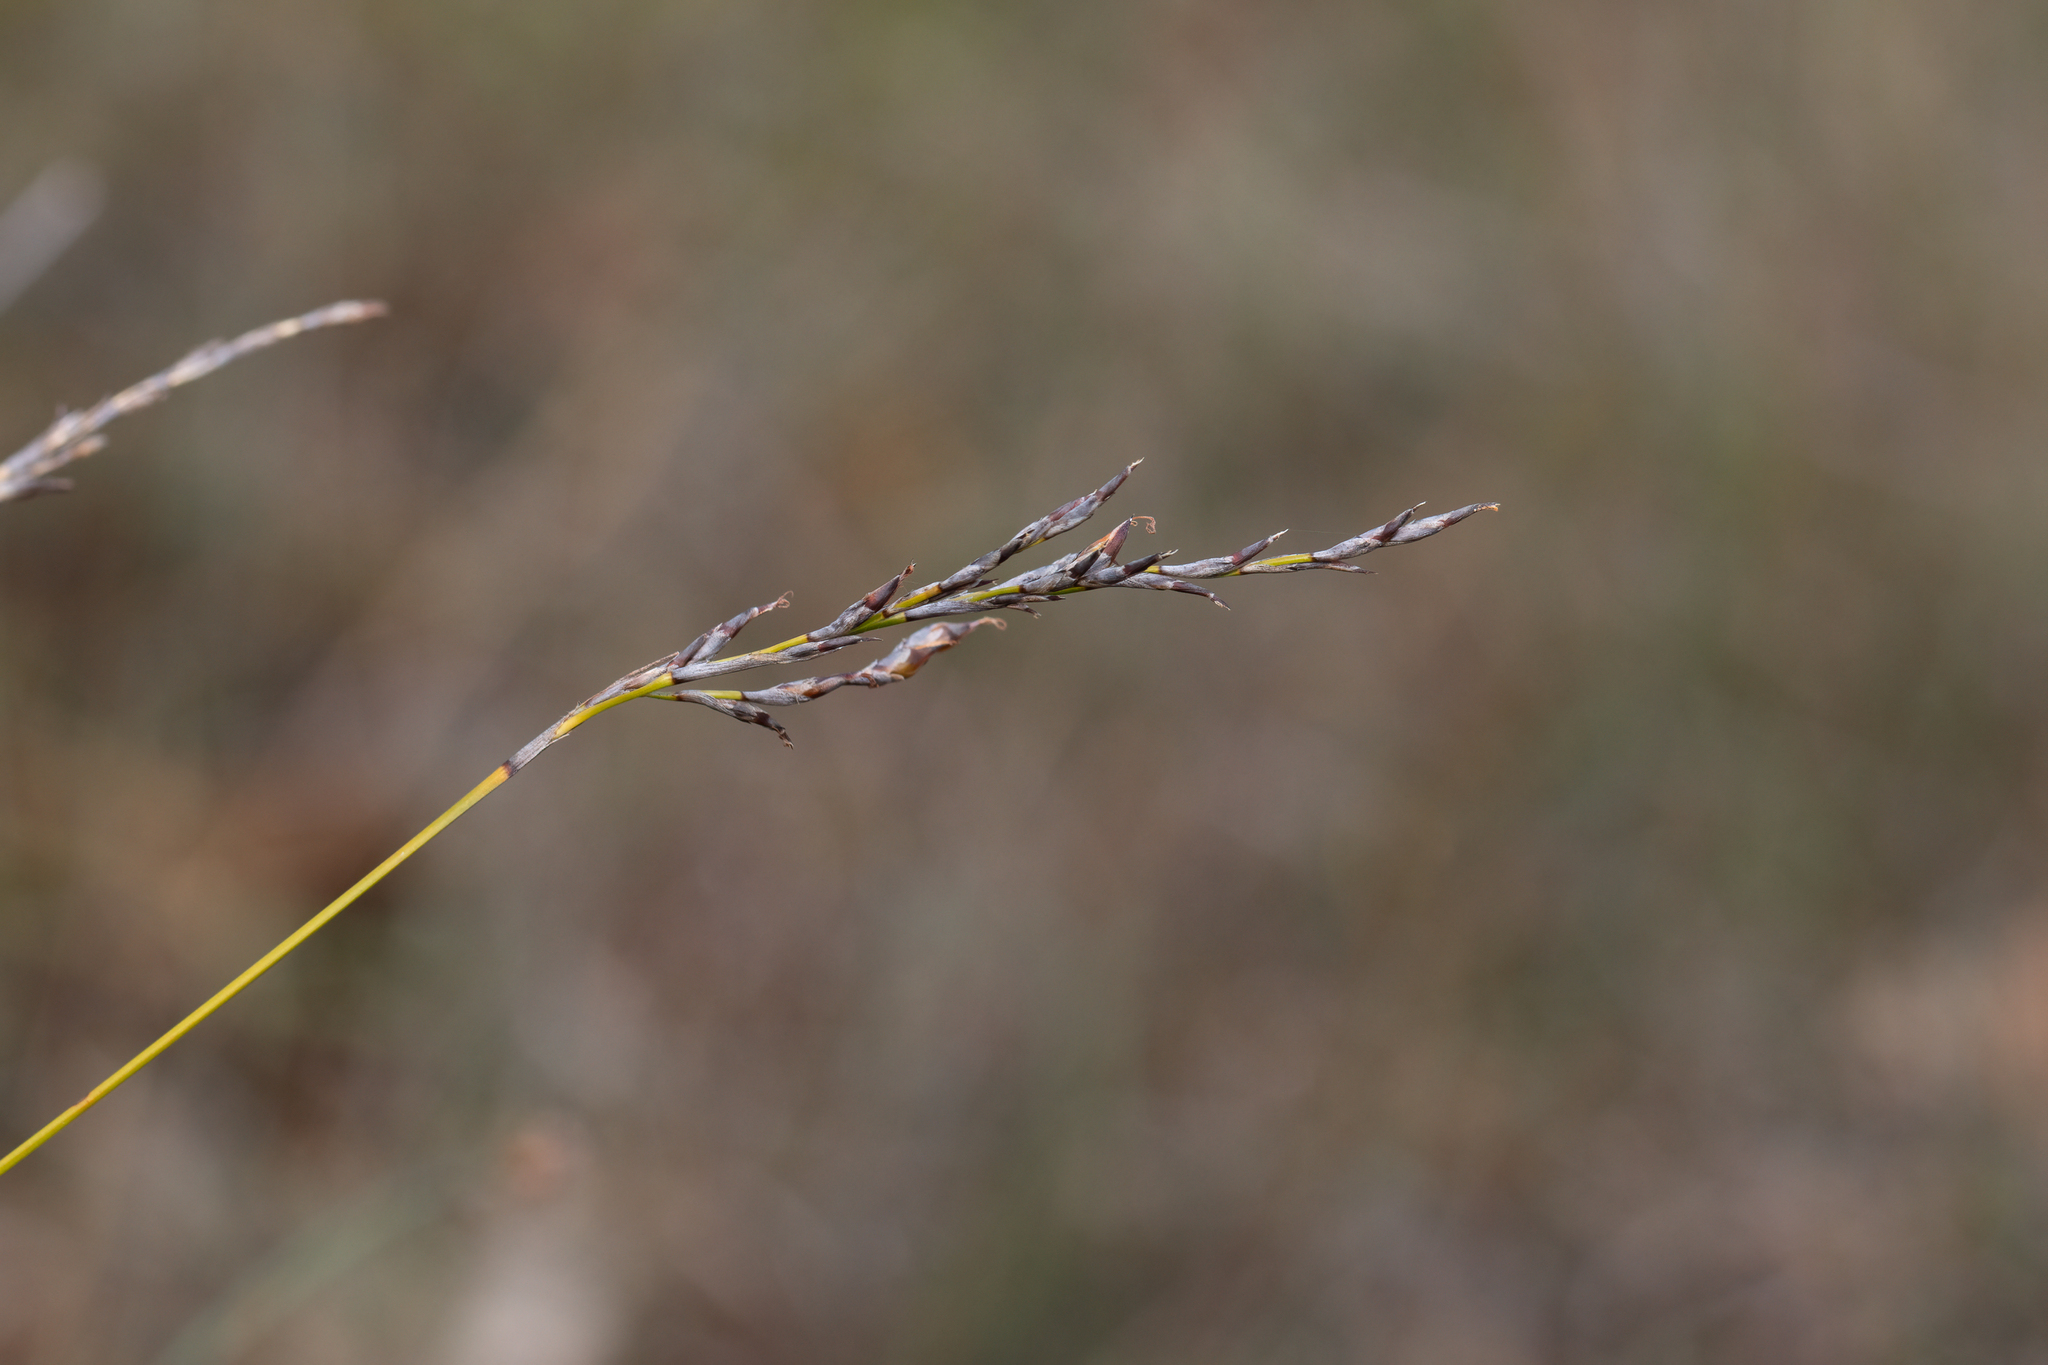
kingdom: Plantae
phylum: Tracheophyta
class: Liliopsida
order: Poales
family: Cyperaceae
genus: Lepidosperma
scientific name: Lepidosperma semiteres
